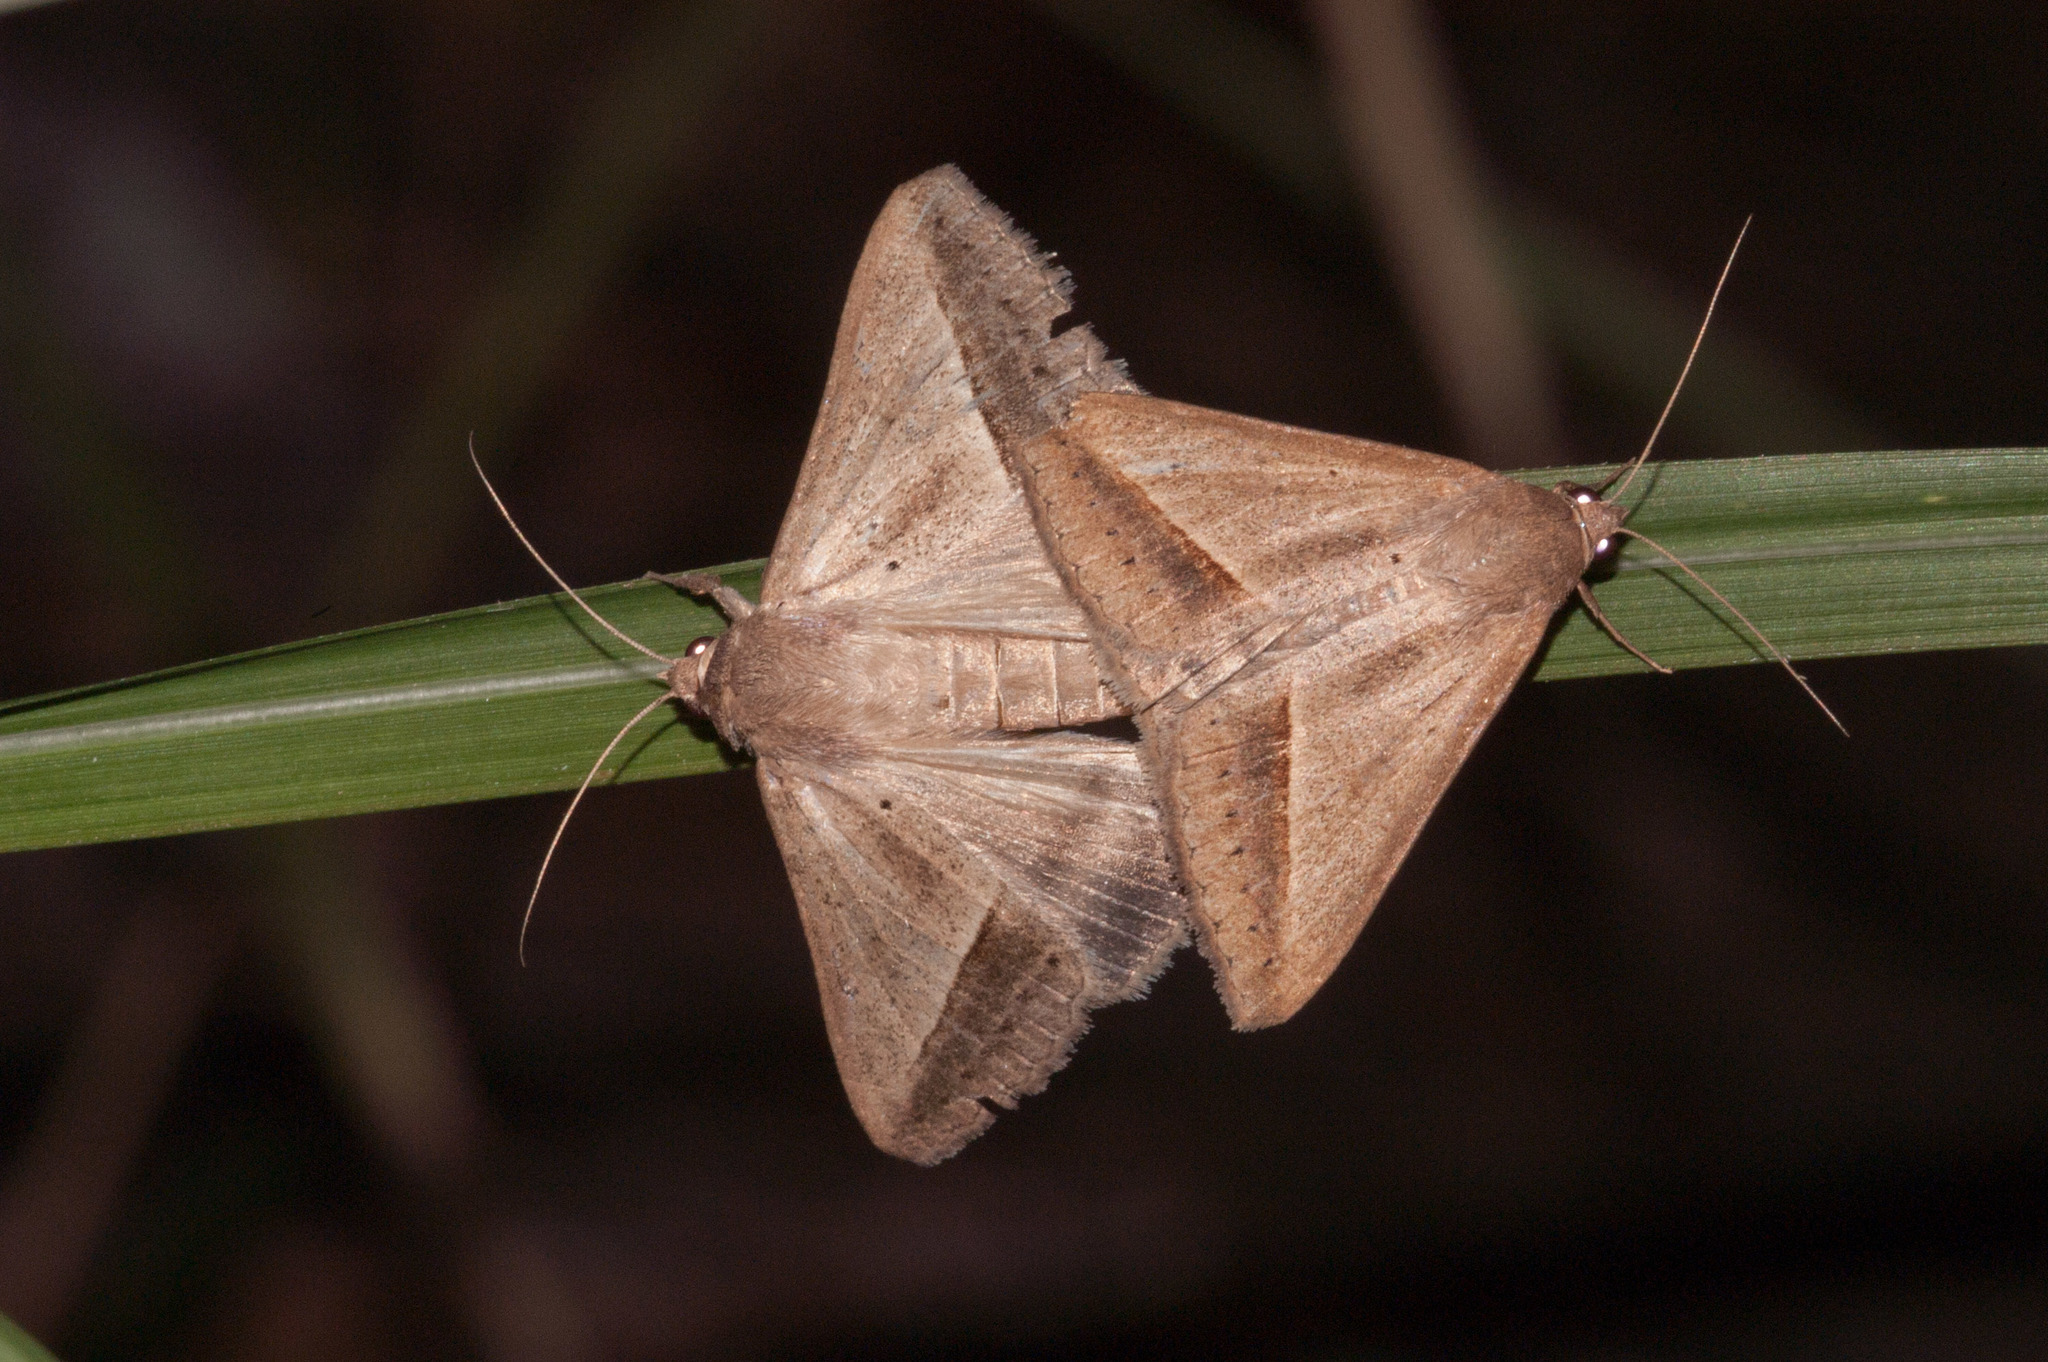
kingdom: Animalia
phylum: Arthropoda
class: Insecta
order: Lepidoptera
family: Erebidae
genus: Mocis
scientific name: Mocis frugalis
